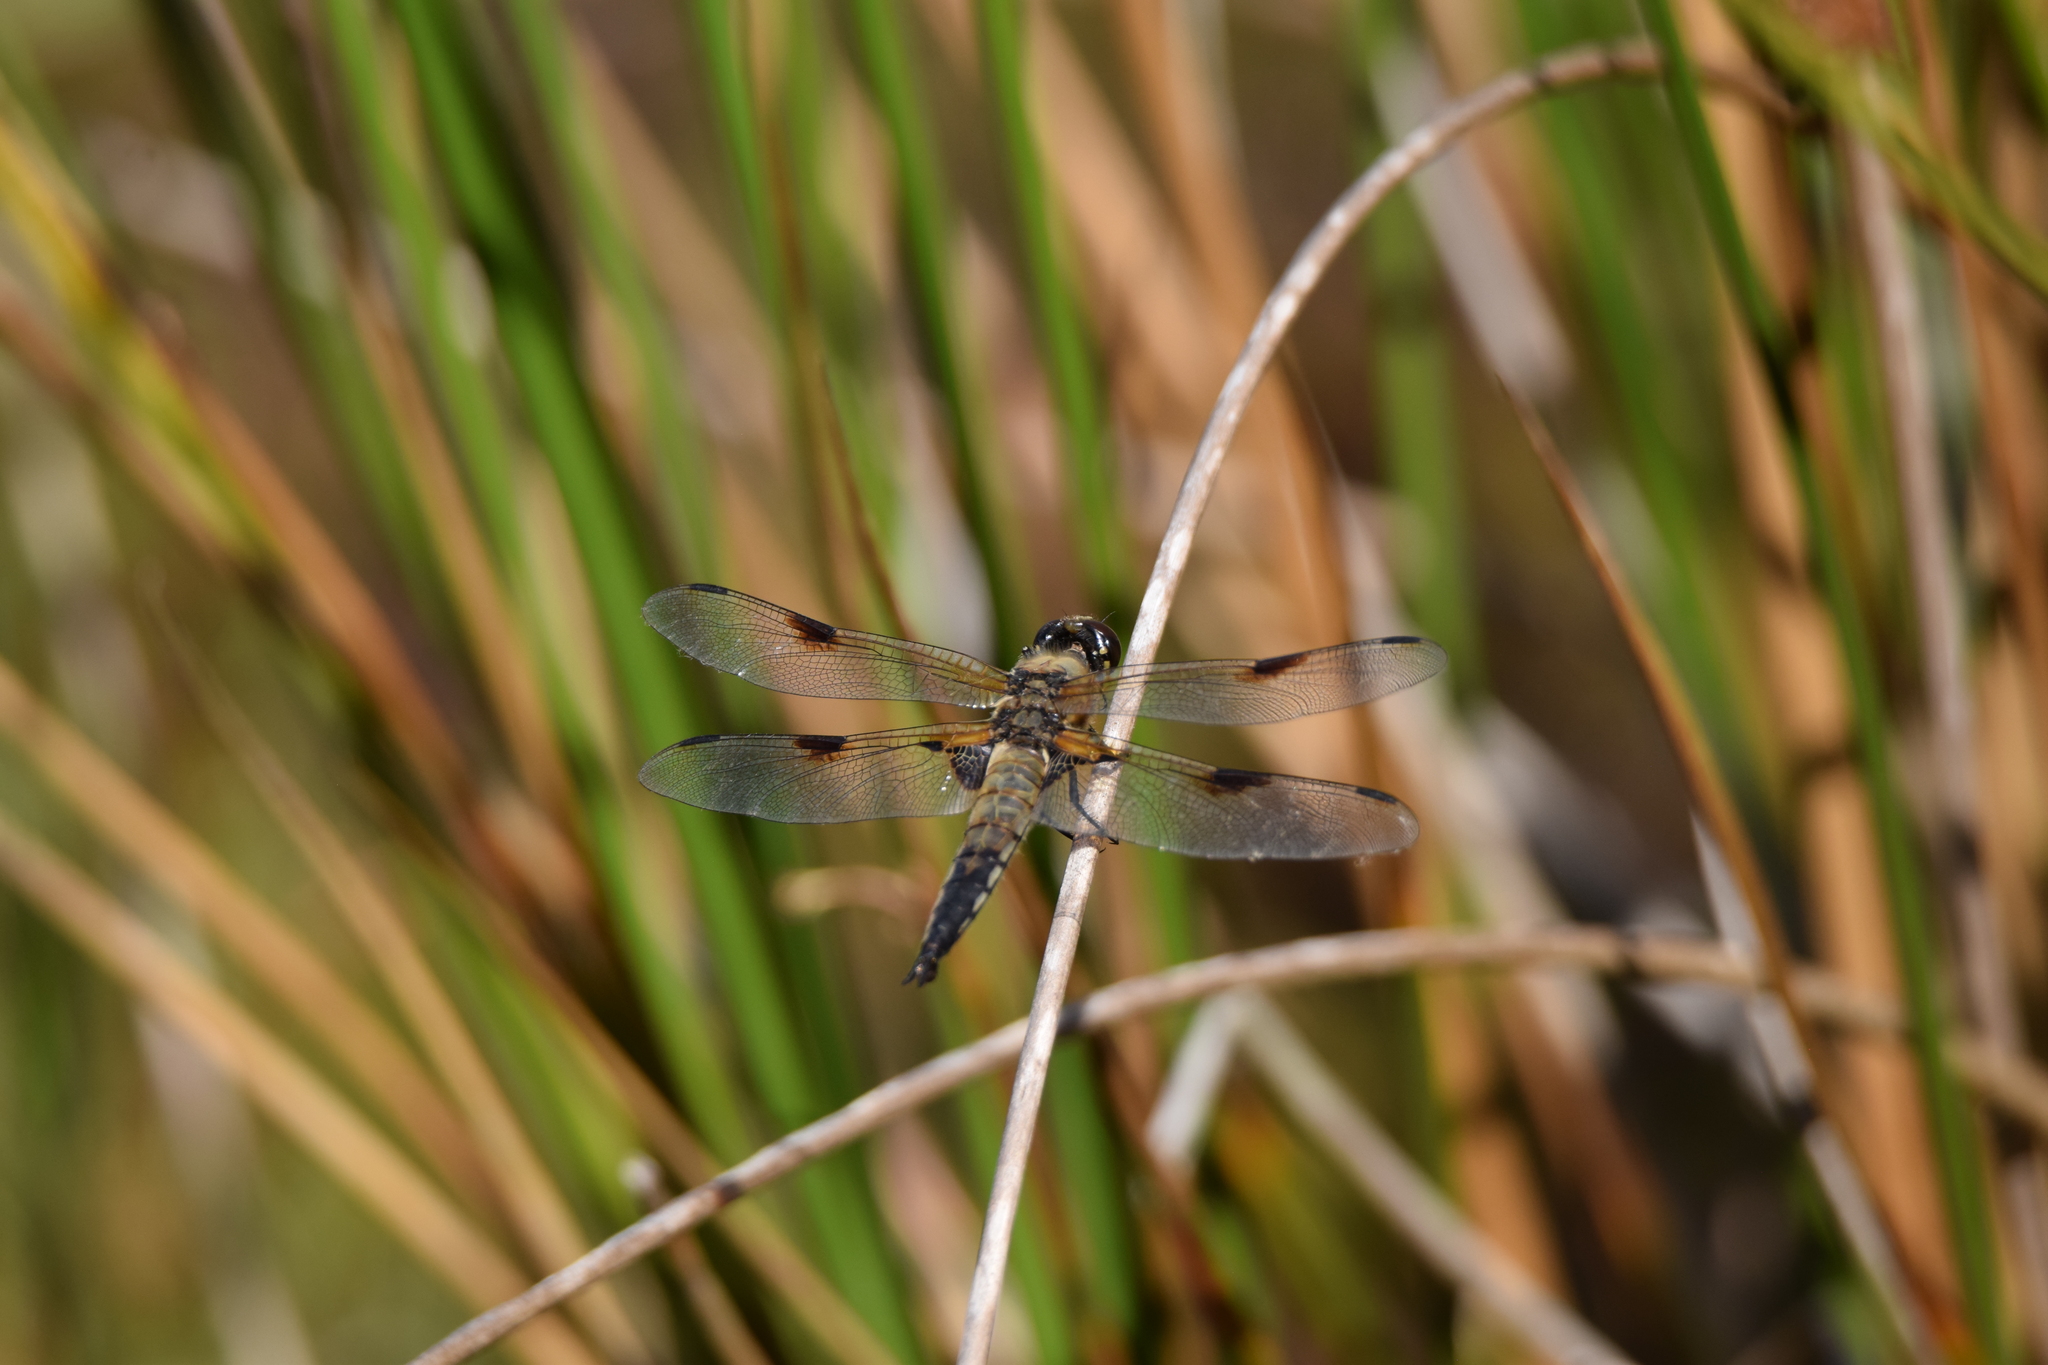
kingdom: Animalia
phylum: Arthropoda
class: Insecta
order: Odonata
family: Libellulidae
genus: Libellula
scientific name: Libellula quadrimaculata
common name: Four-spotted chaser
